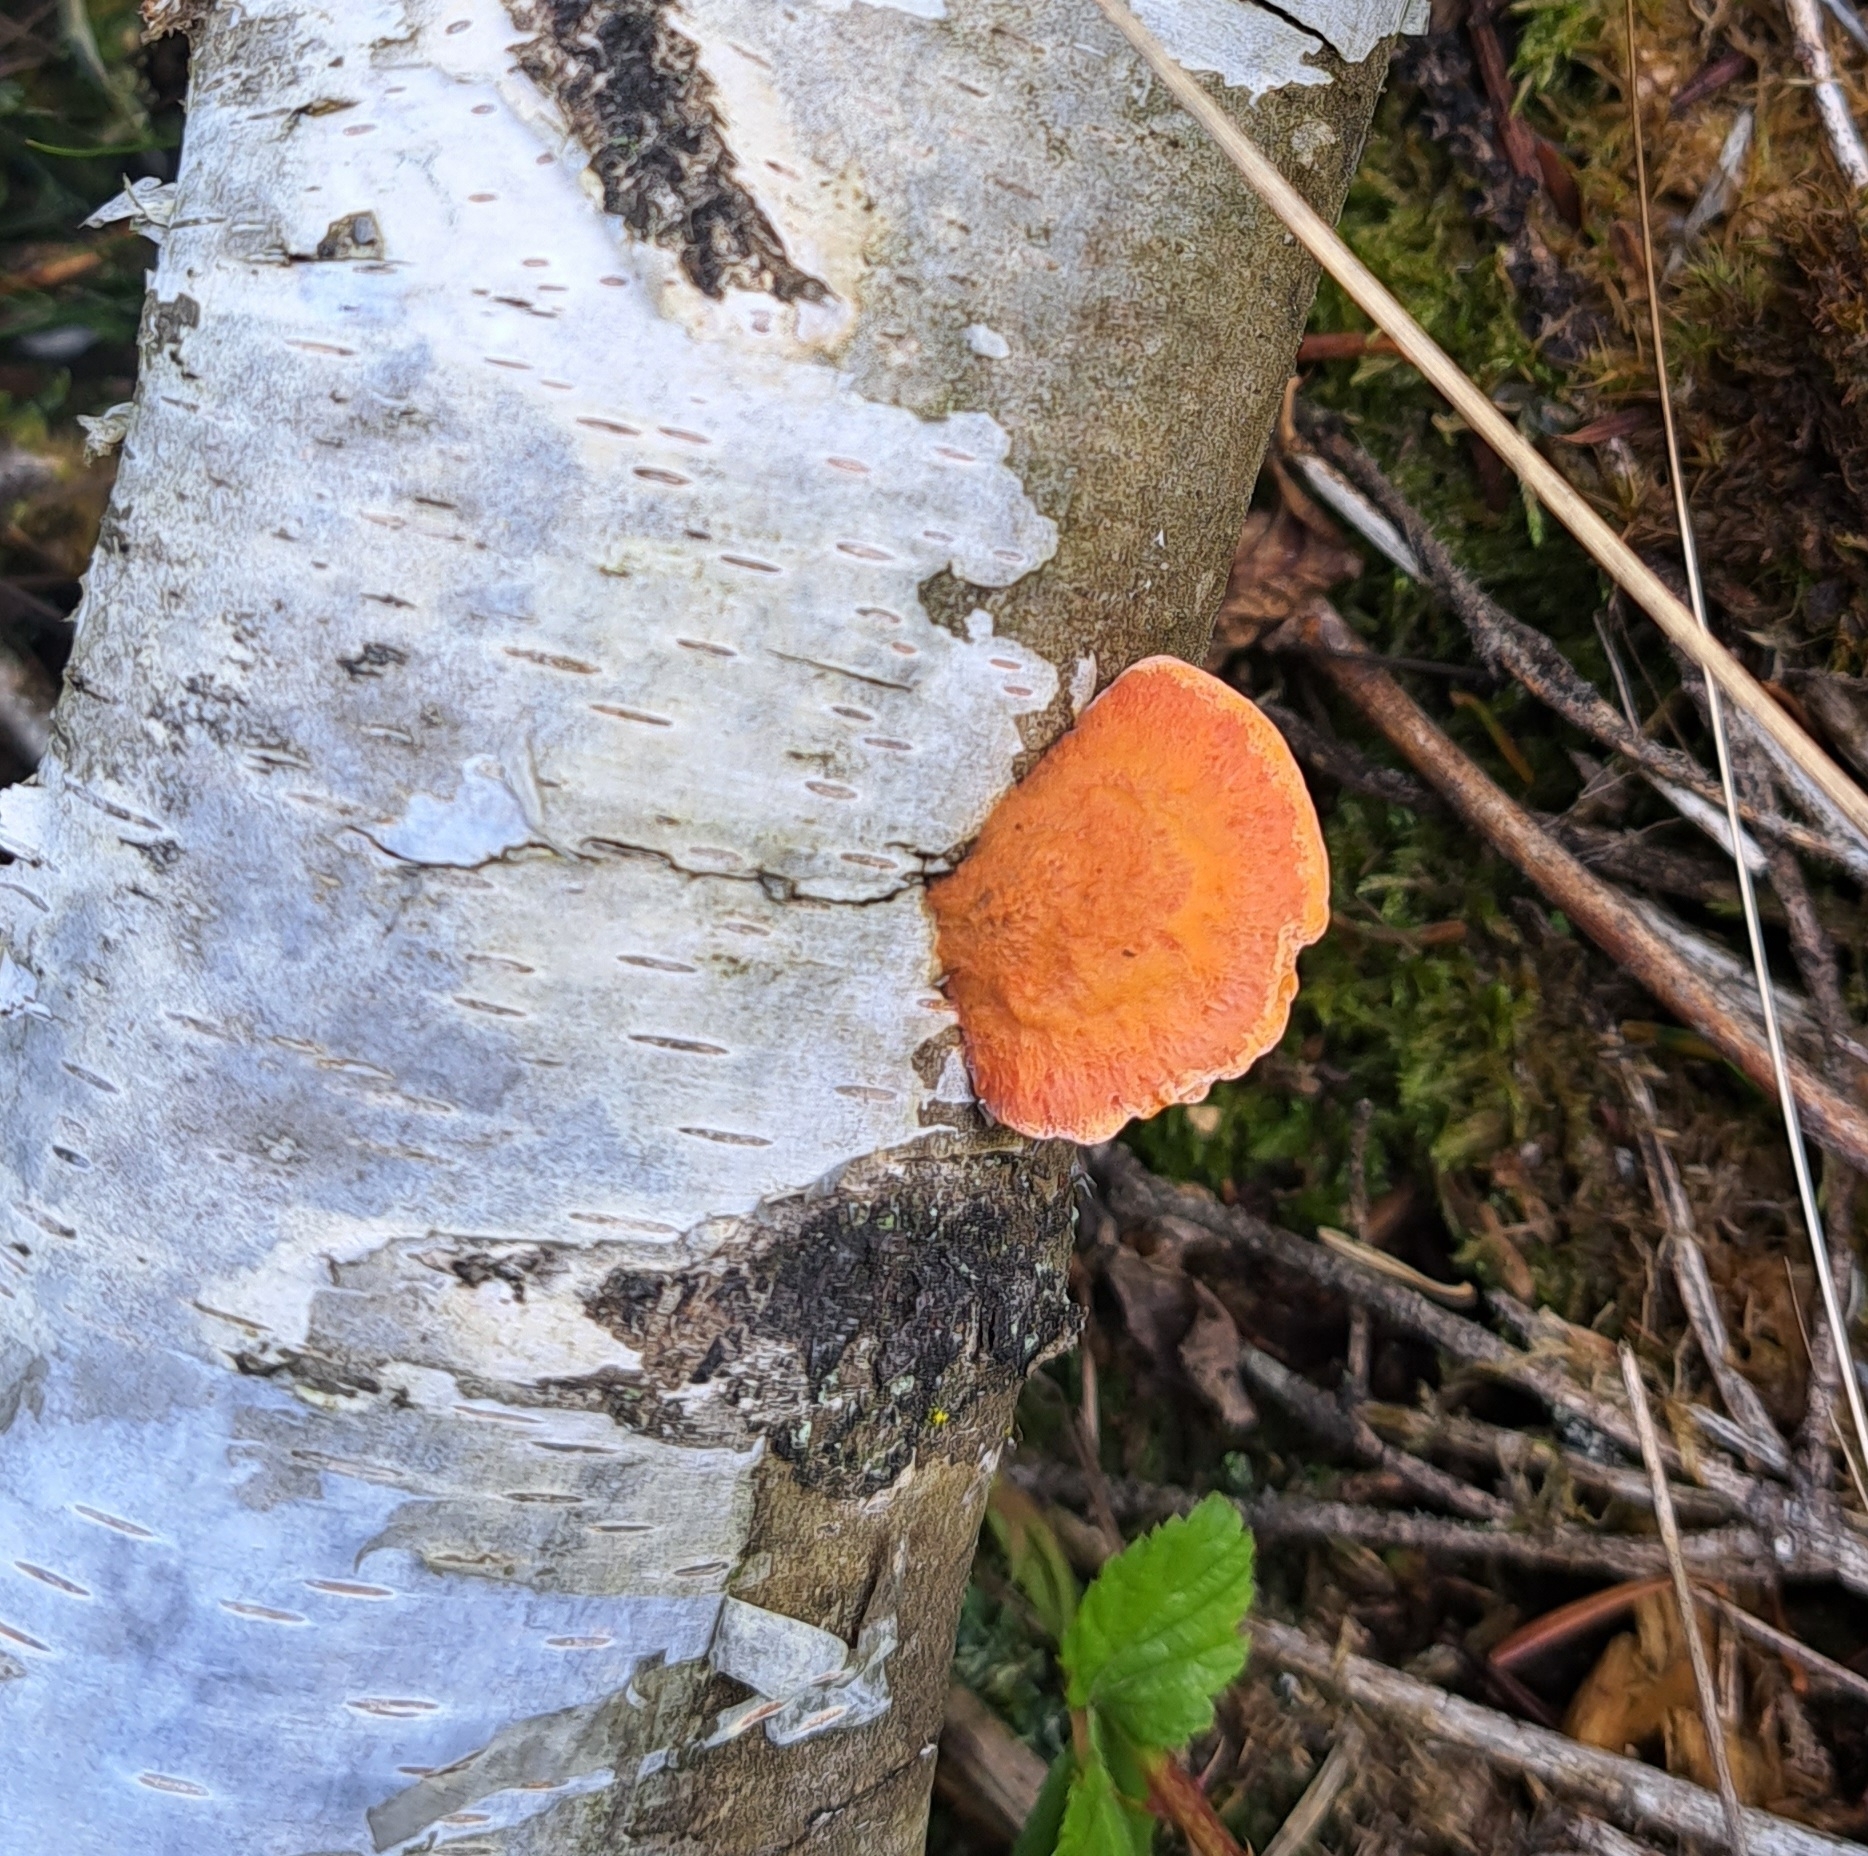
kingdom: Fungi
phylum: Basidiomycota
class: Agaricomycetes
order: Polyporales
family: Polyporaceae
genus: Trametes
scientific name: Trametes cinnabarina
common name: Northern cinnabar polypore
